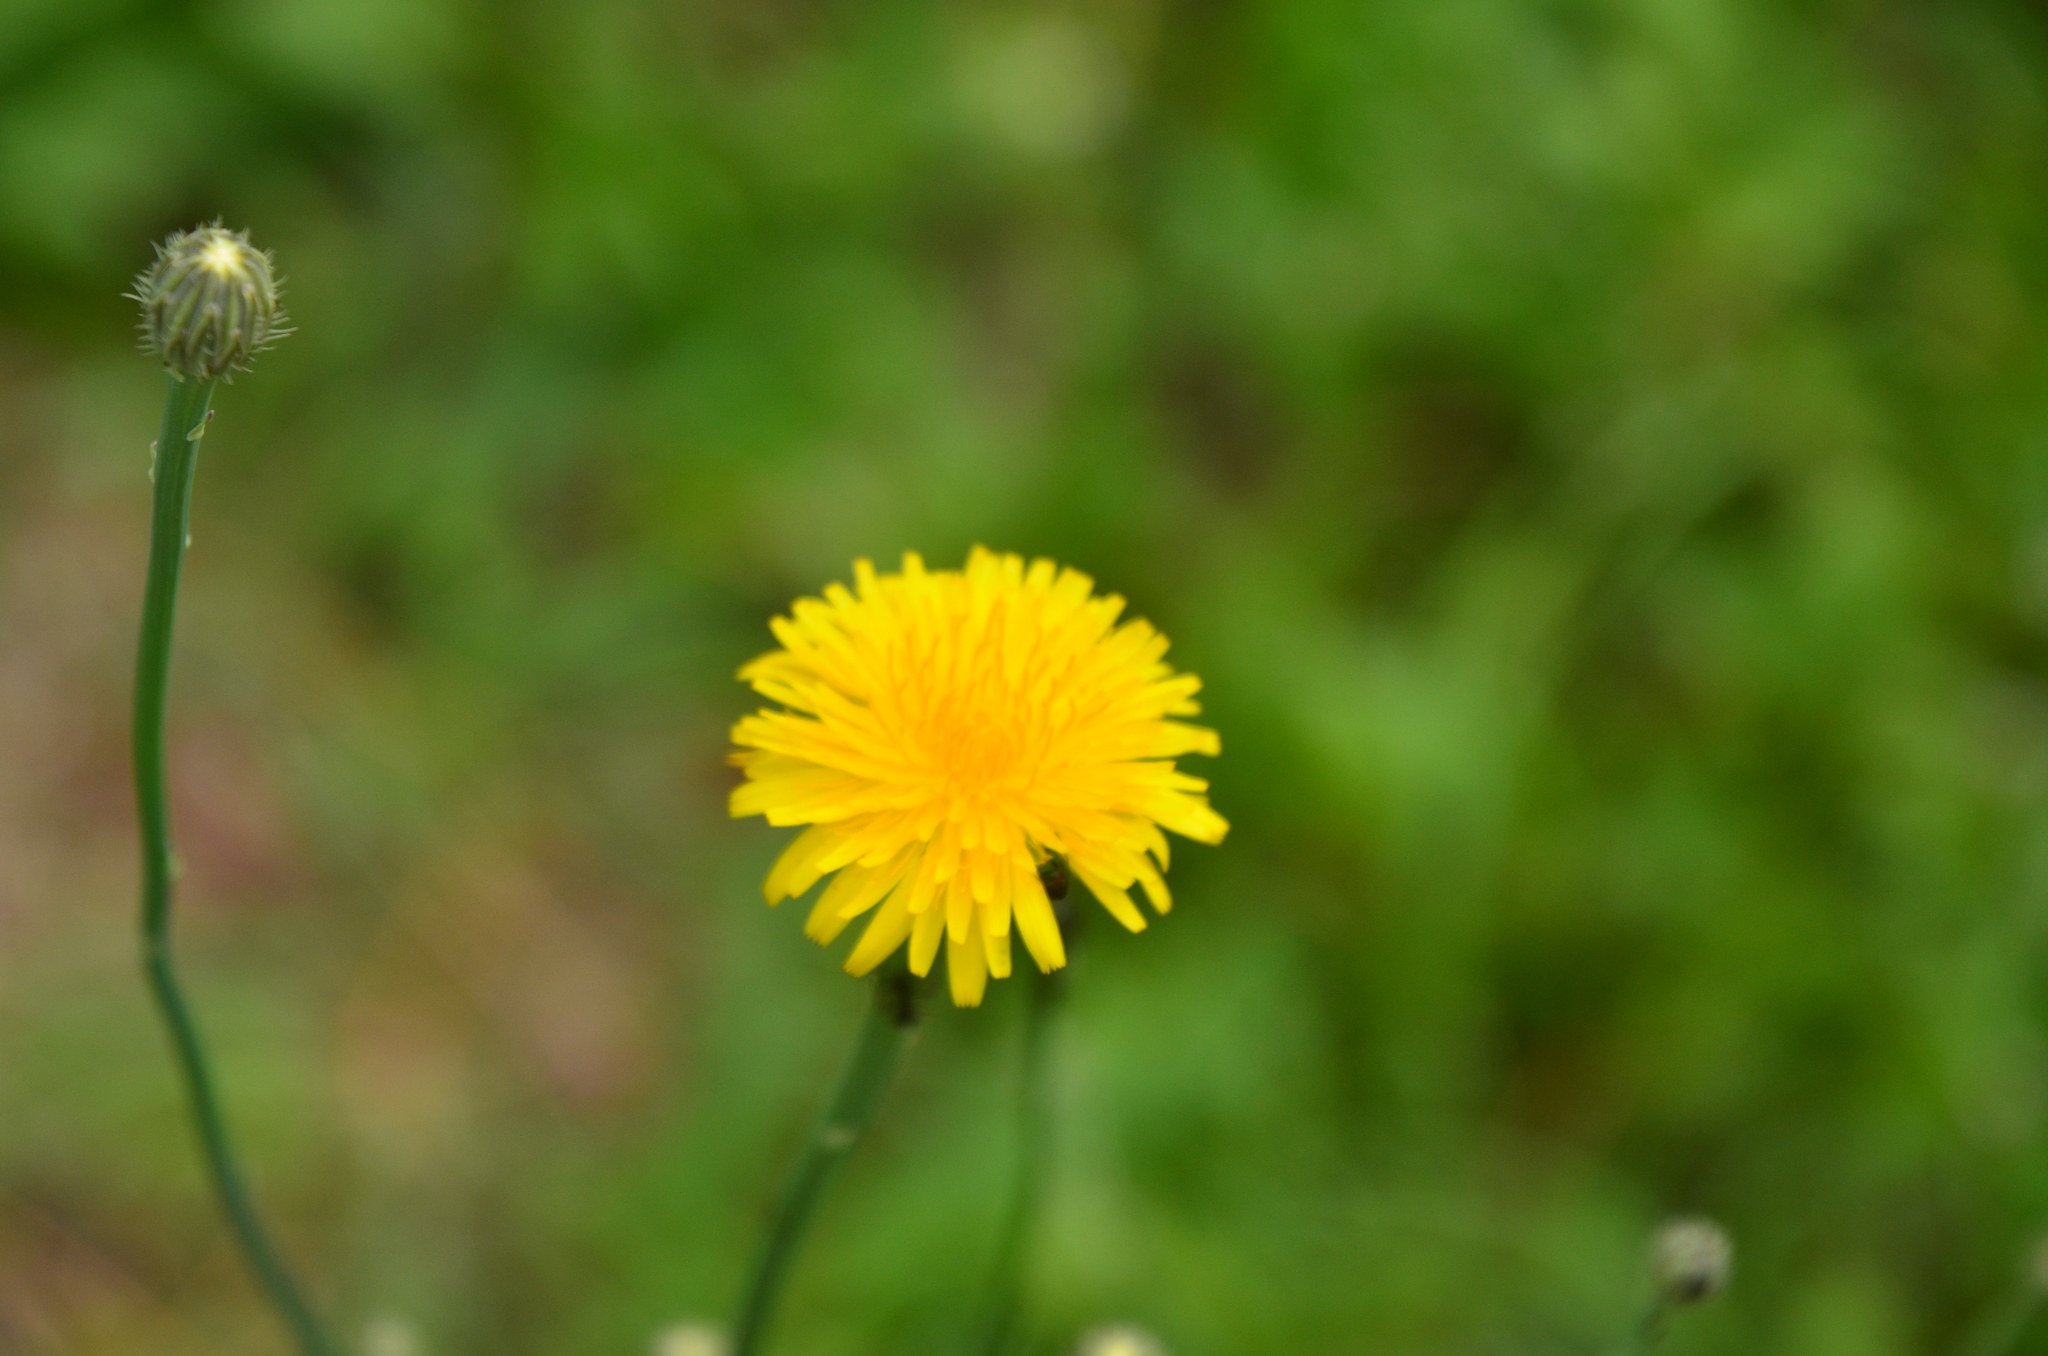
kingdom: Plantae
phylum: Tracheophyta
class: Magnoliopsida
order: Asterales
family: Asteraceae
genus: Hypochaeris
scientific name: Hypochaeris radicata
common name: Flatweed
